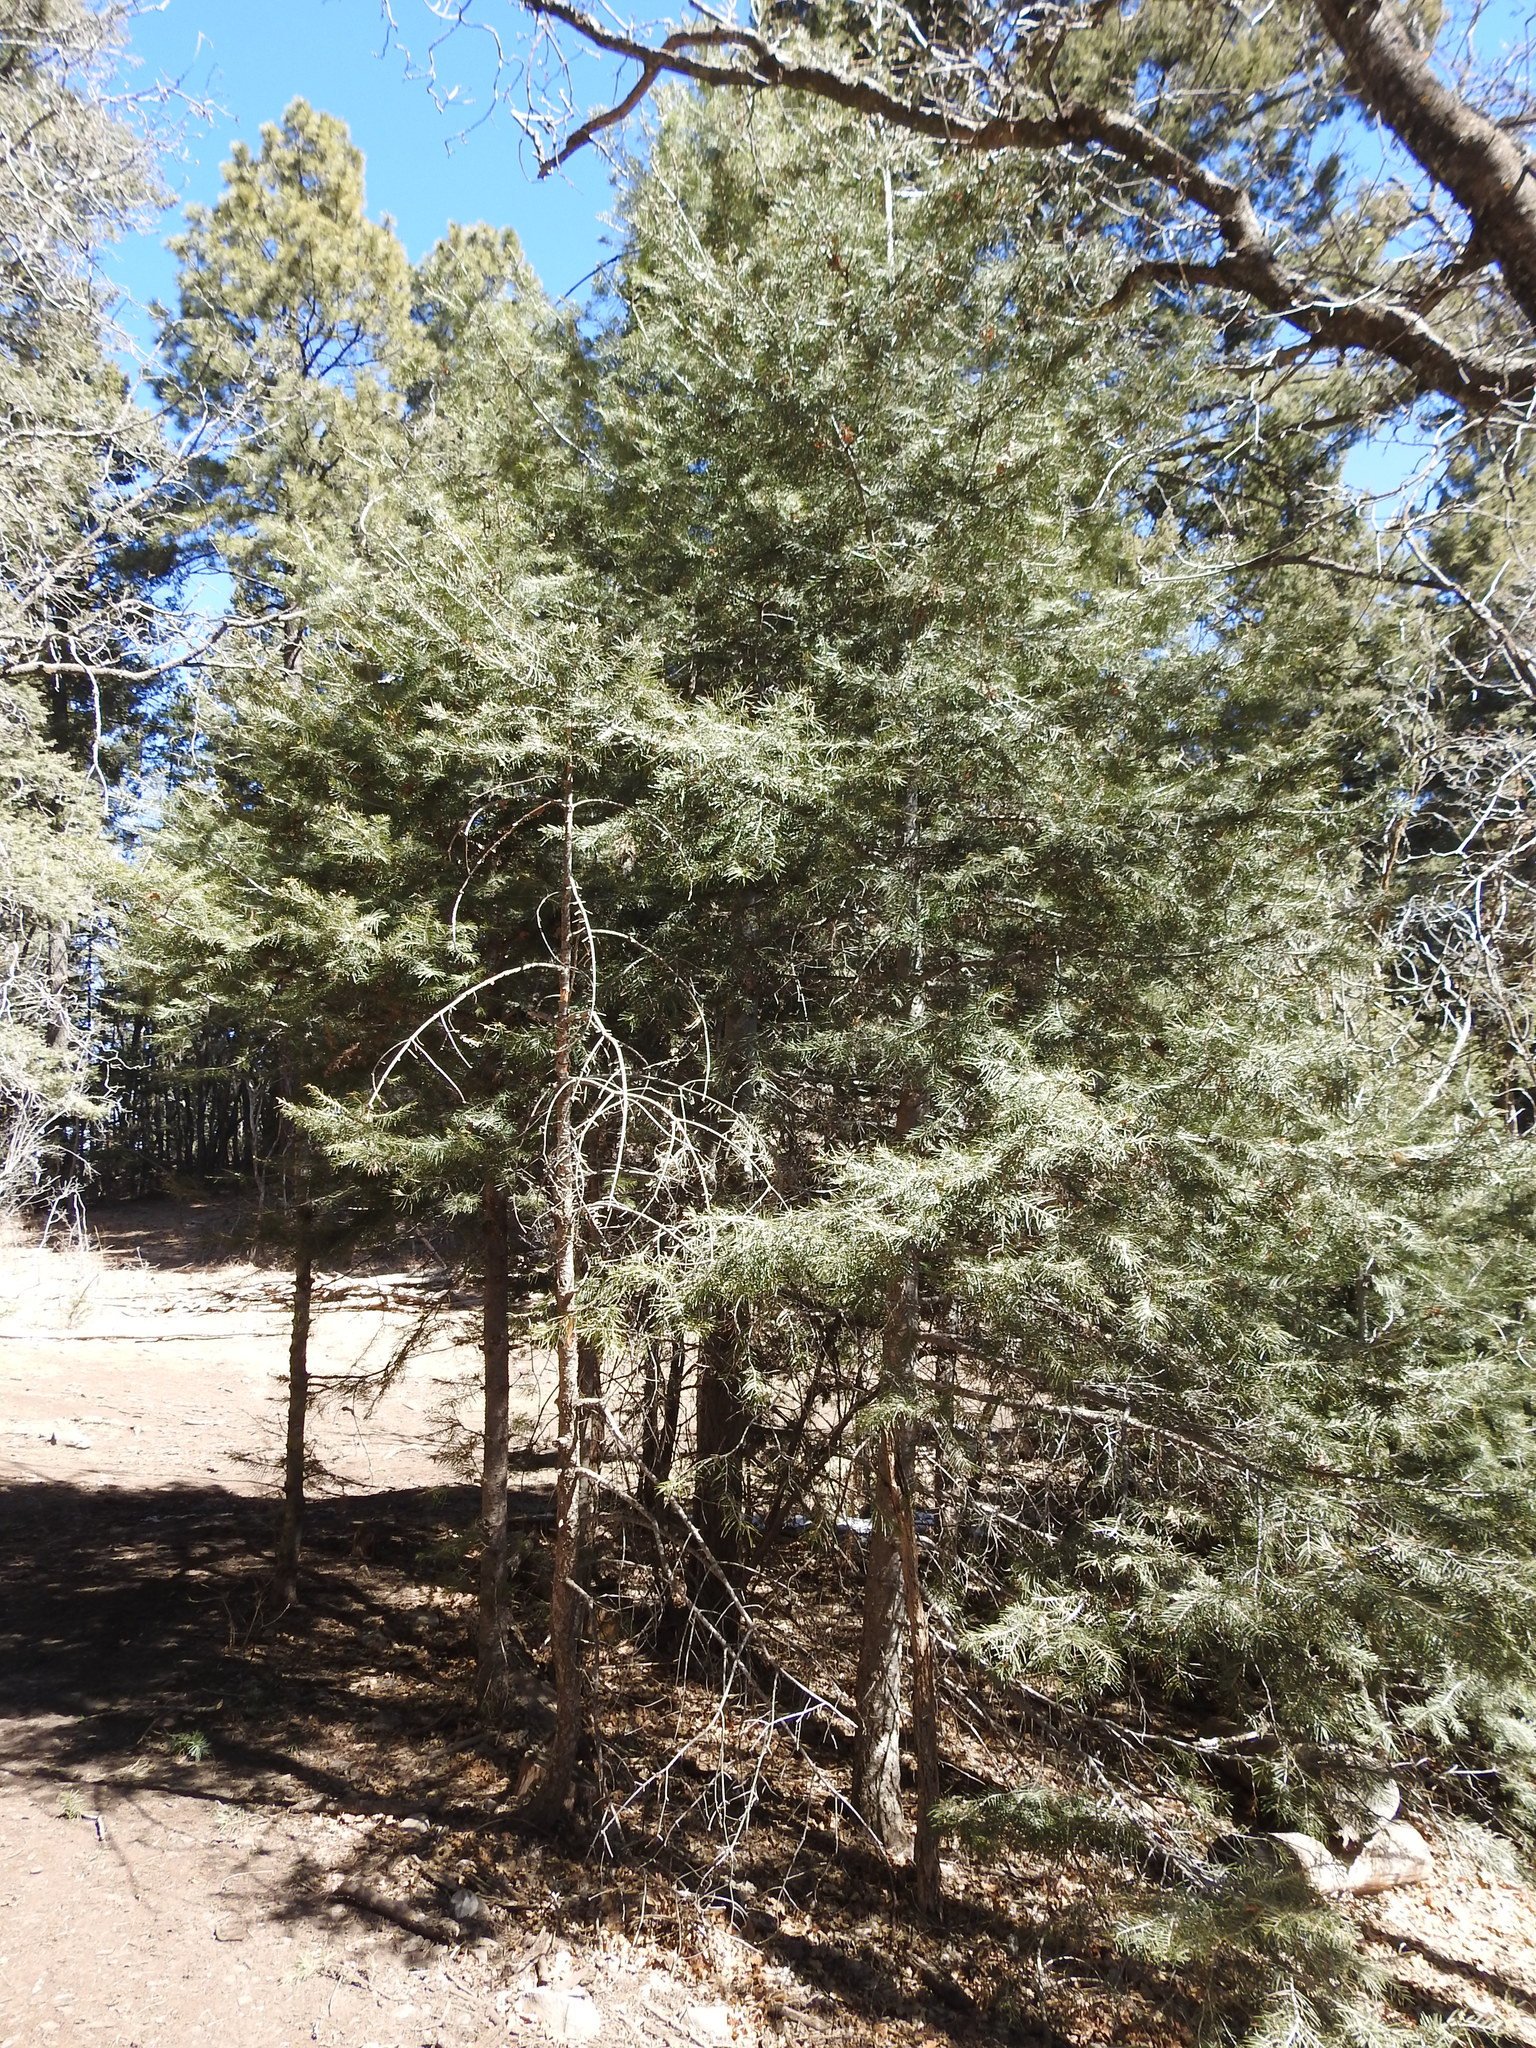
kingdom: Plantae
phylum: Tracheophyta
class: Pinopsida
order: Pinales
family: Pinaceae
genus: Abies
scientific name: Abies concolor
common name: Colorado fir
